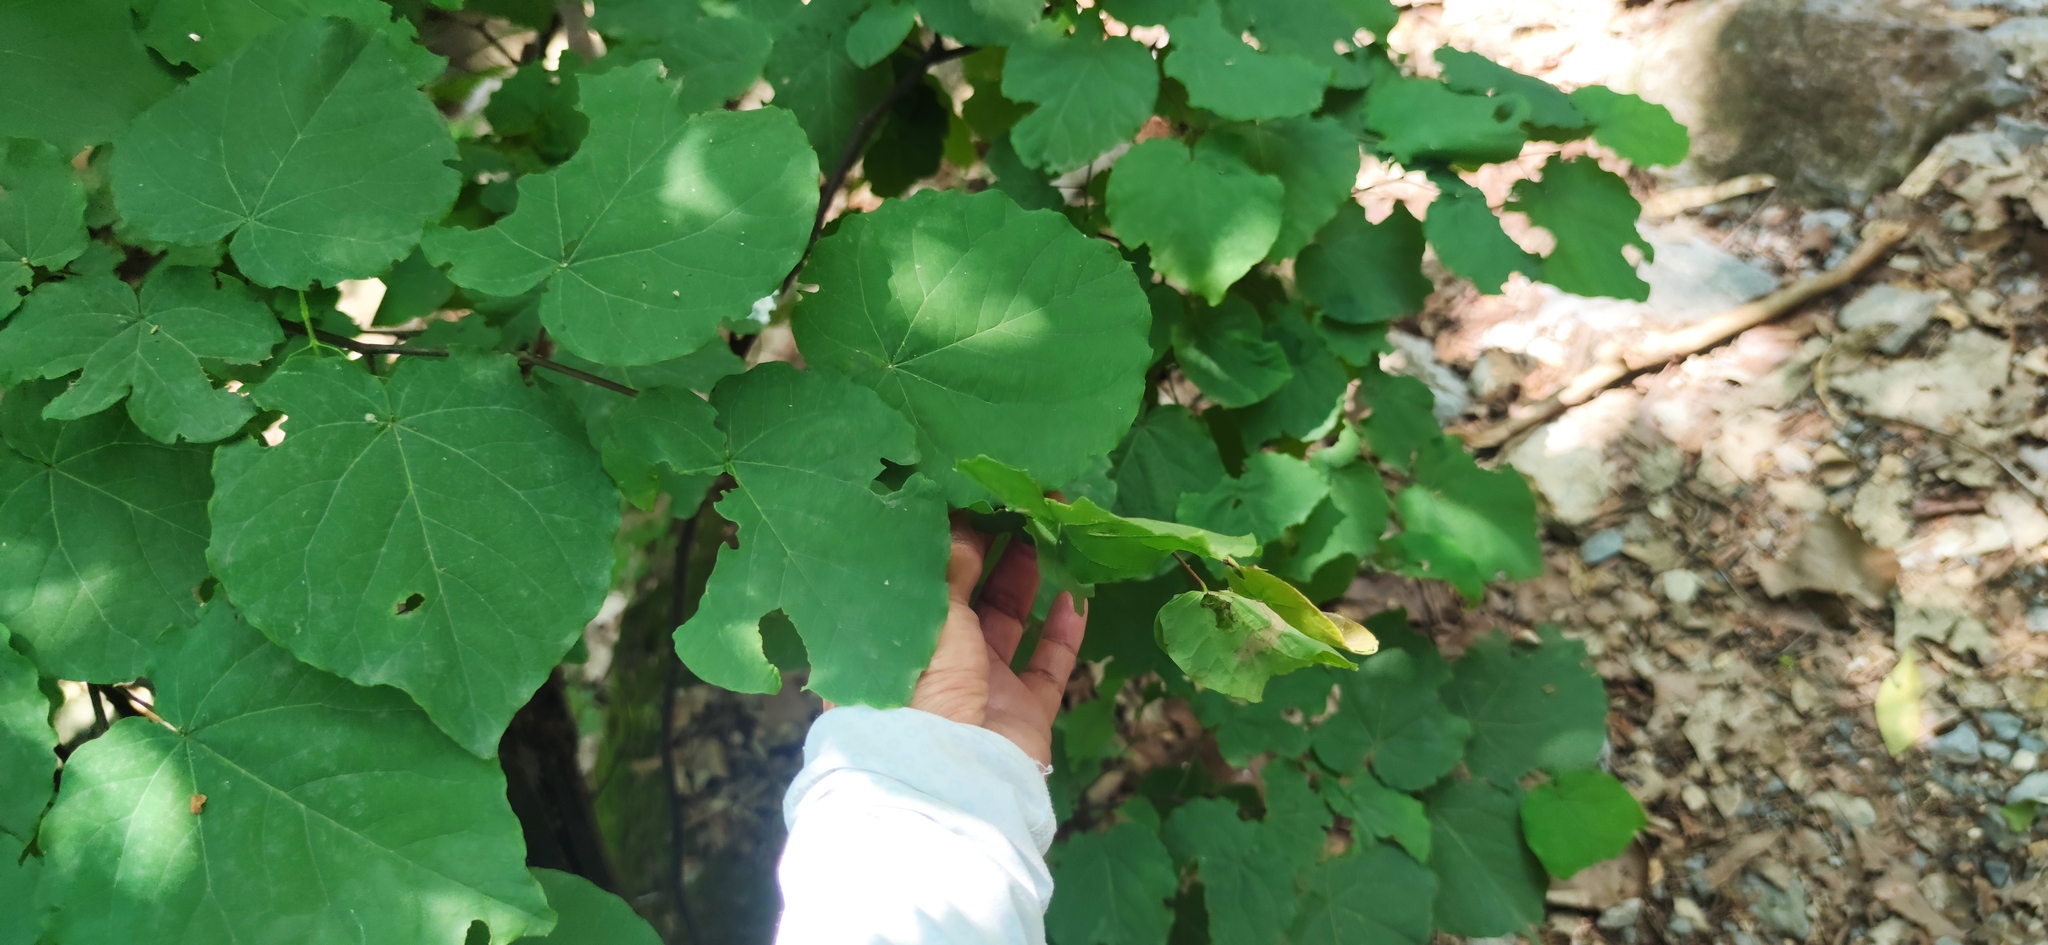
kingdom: Plantae
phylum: Tracheophyta
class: Magnoliopsida
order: Fabales
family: Fabaceae
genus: Cercis
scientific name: Cercis canadensis
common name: Eastern redbud
